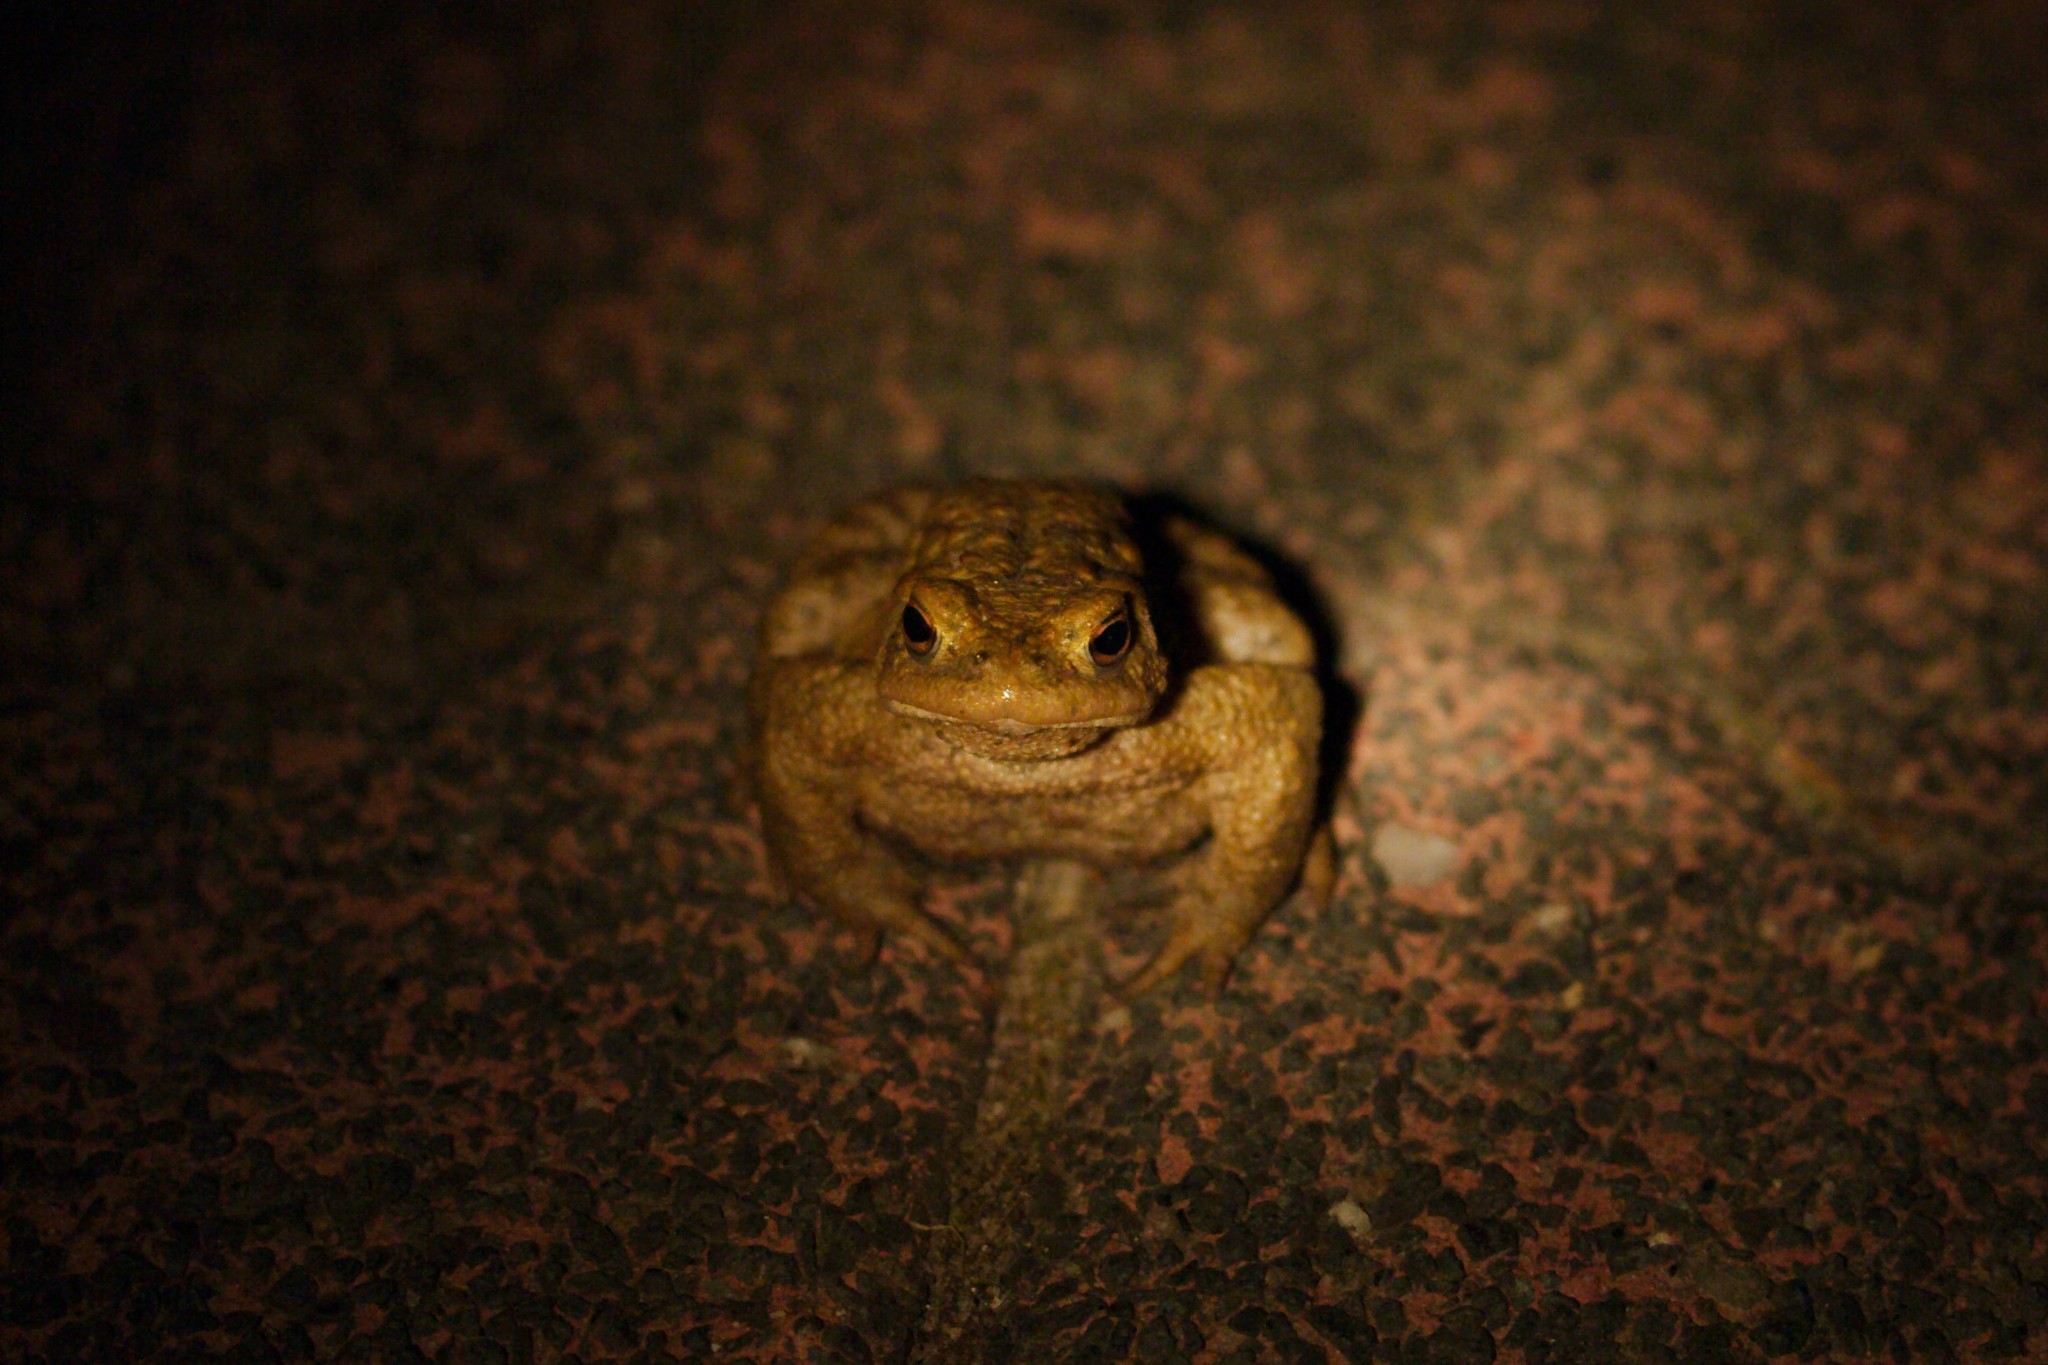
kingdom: Animalia
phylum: Chordata
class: Amphibia
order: Anura
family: Bufonidae
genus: Bufo
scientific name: Bufo bufo
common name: Common toad
